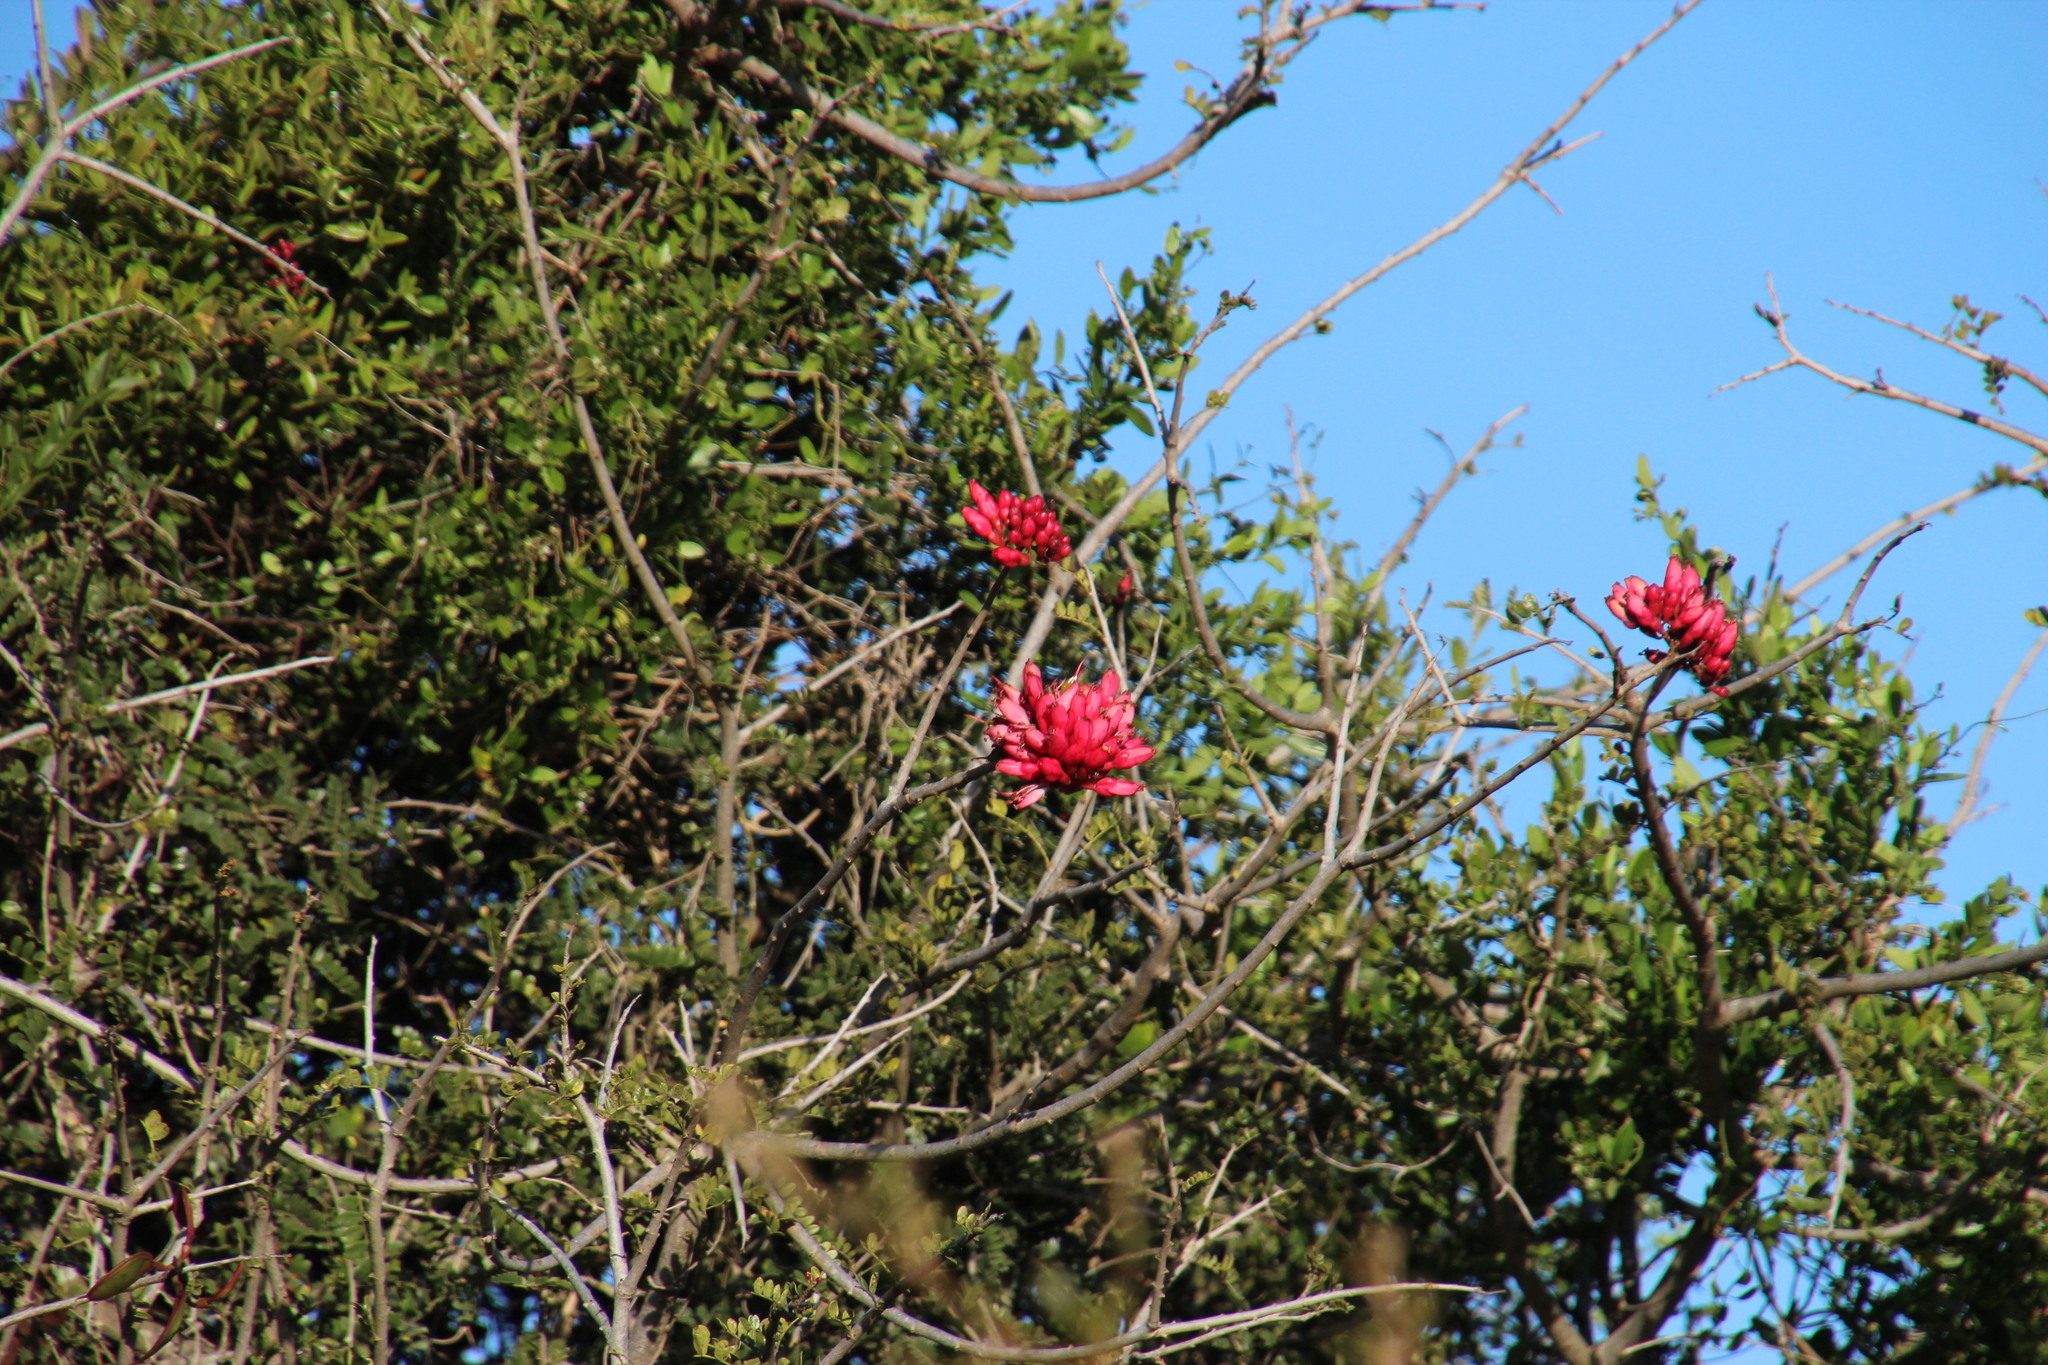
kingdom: Plantae
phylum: Tracheophyta
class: Magnoliopsida
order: Fabales
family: Fabaceae
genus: Schotia
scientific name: Schotia afra
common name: Hottentot's bean
